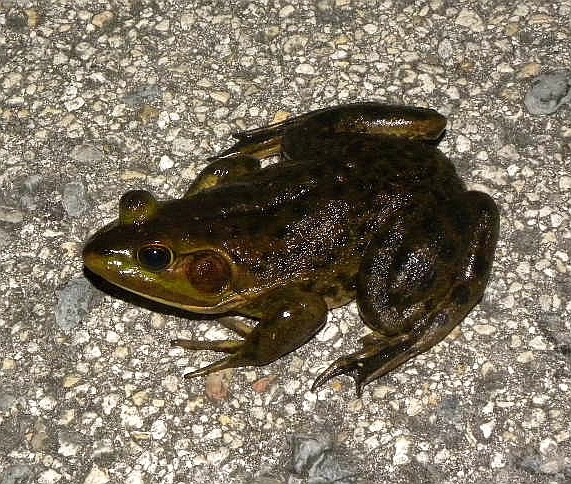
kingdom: Animalia
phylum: Chordata
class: Amphibia
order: Anura
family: Ranidae
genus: Lithobates
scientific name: Lithobates grylio
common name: Pig frog
